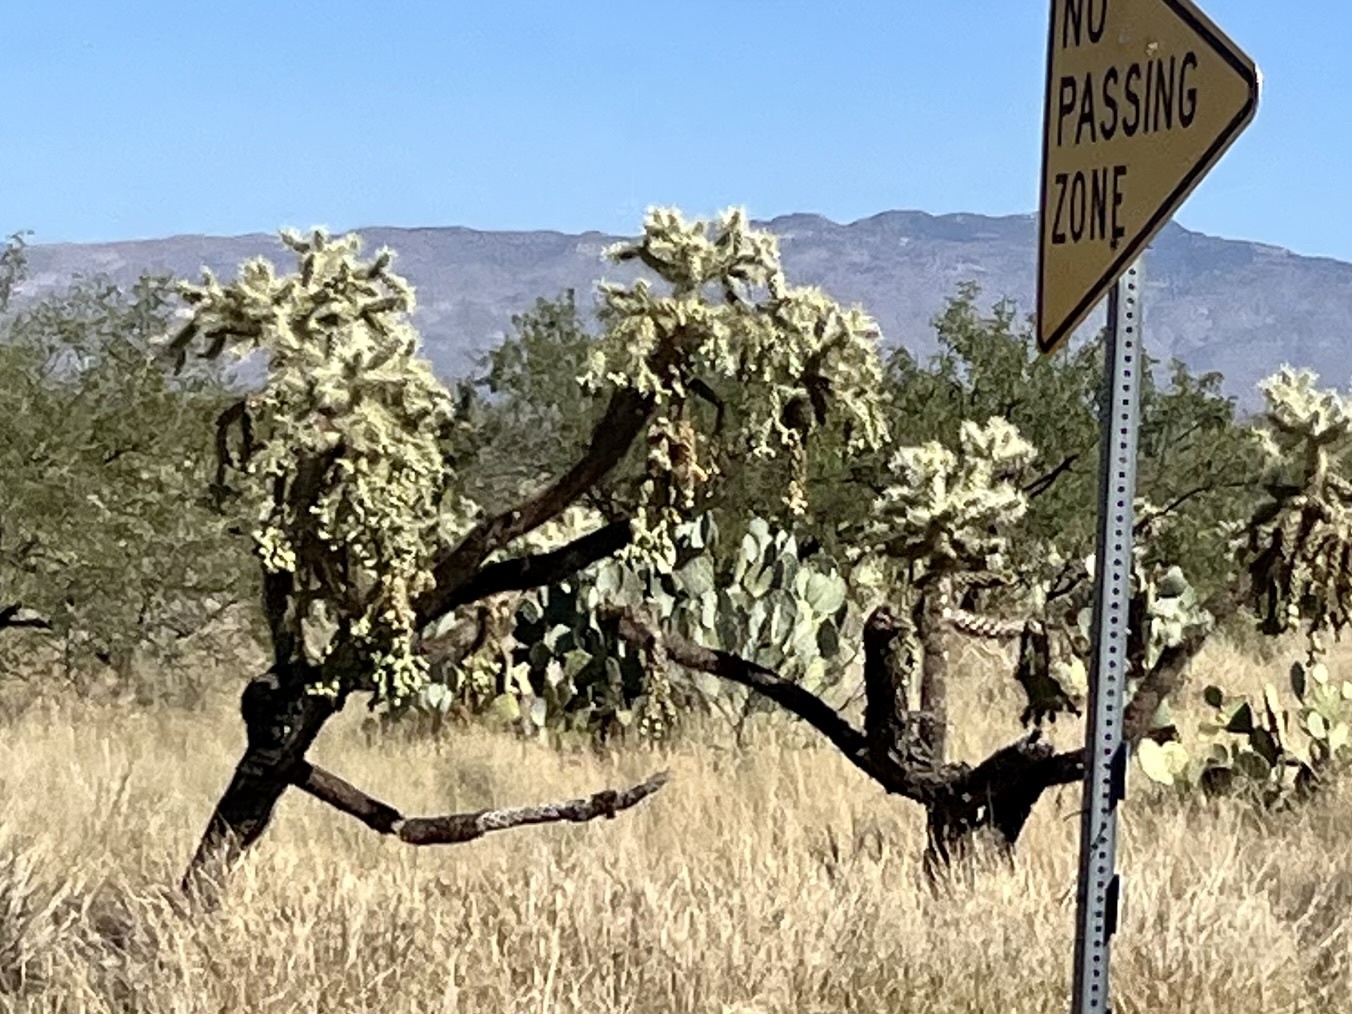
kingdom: Plantae
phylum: Tracheophyta
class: Magnoliopsida
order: Caryophyllales
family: Cactaceae
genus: Cylindropuntia
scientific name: Cylindropuntia fulgida
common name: Jumping cholla
